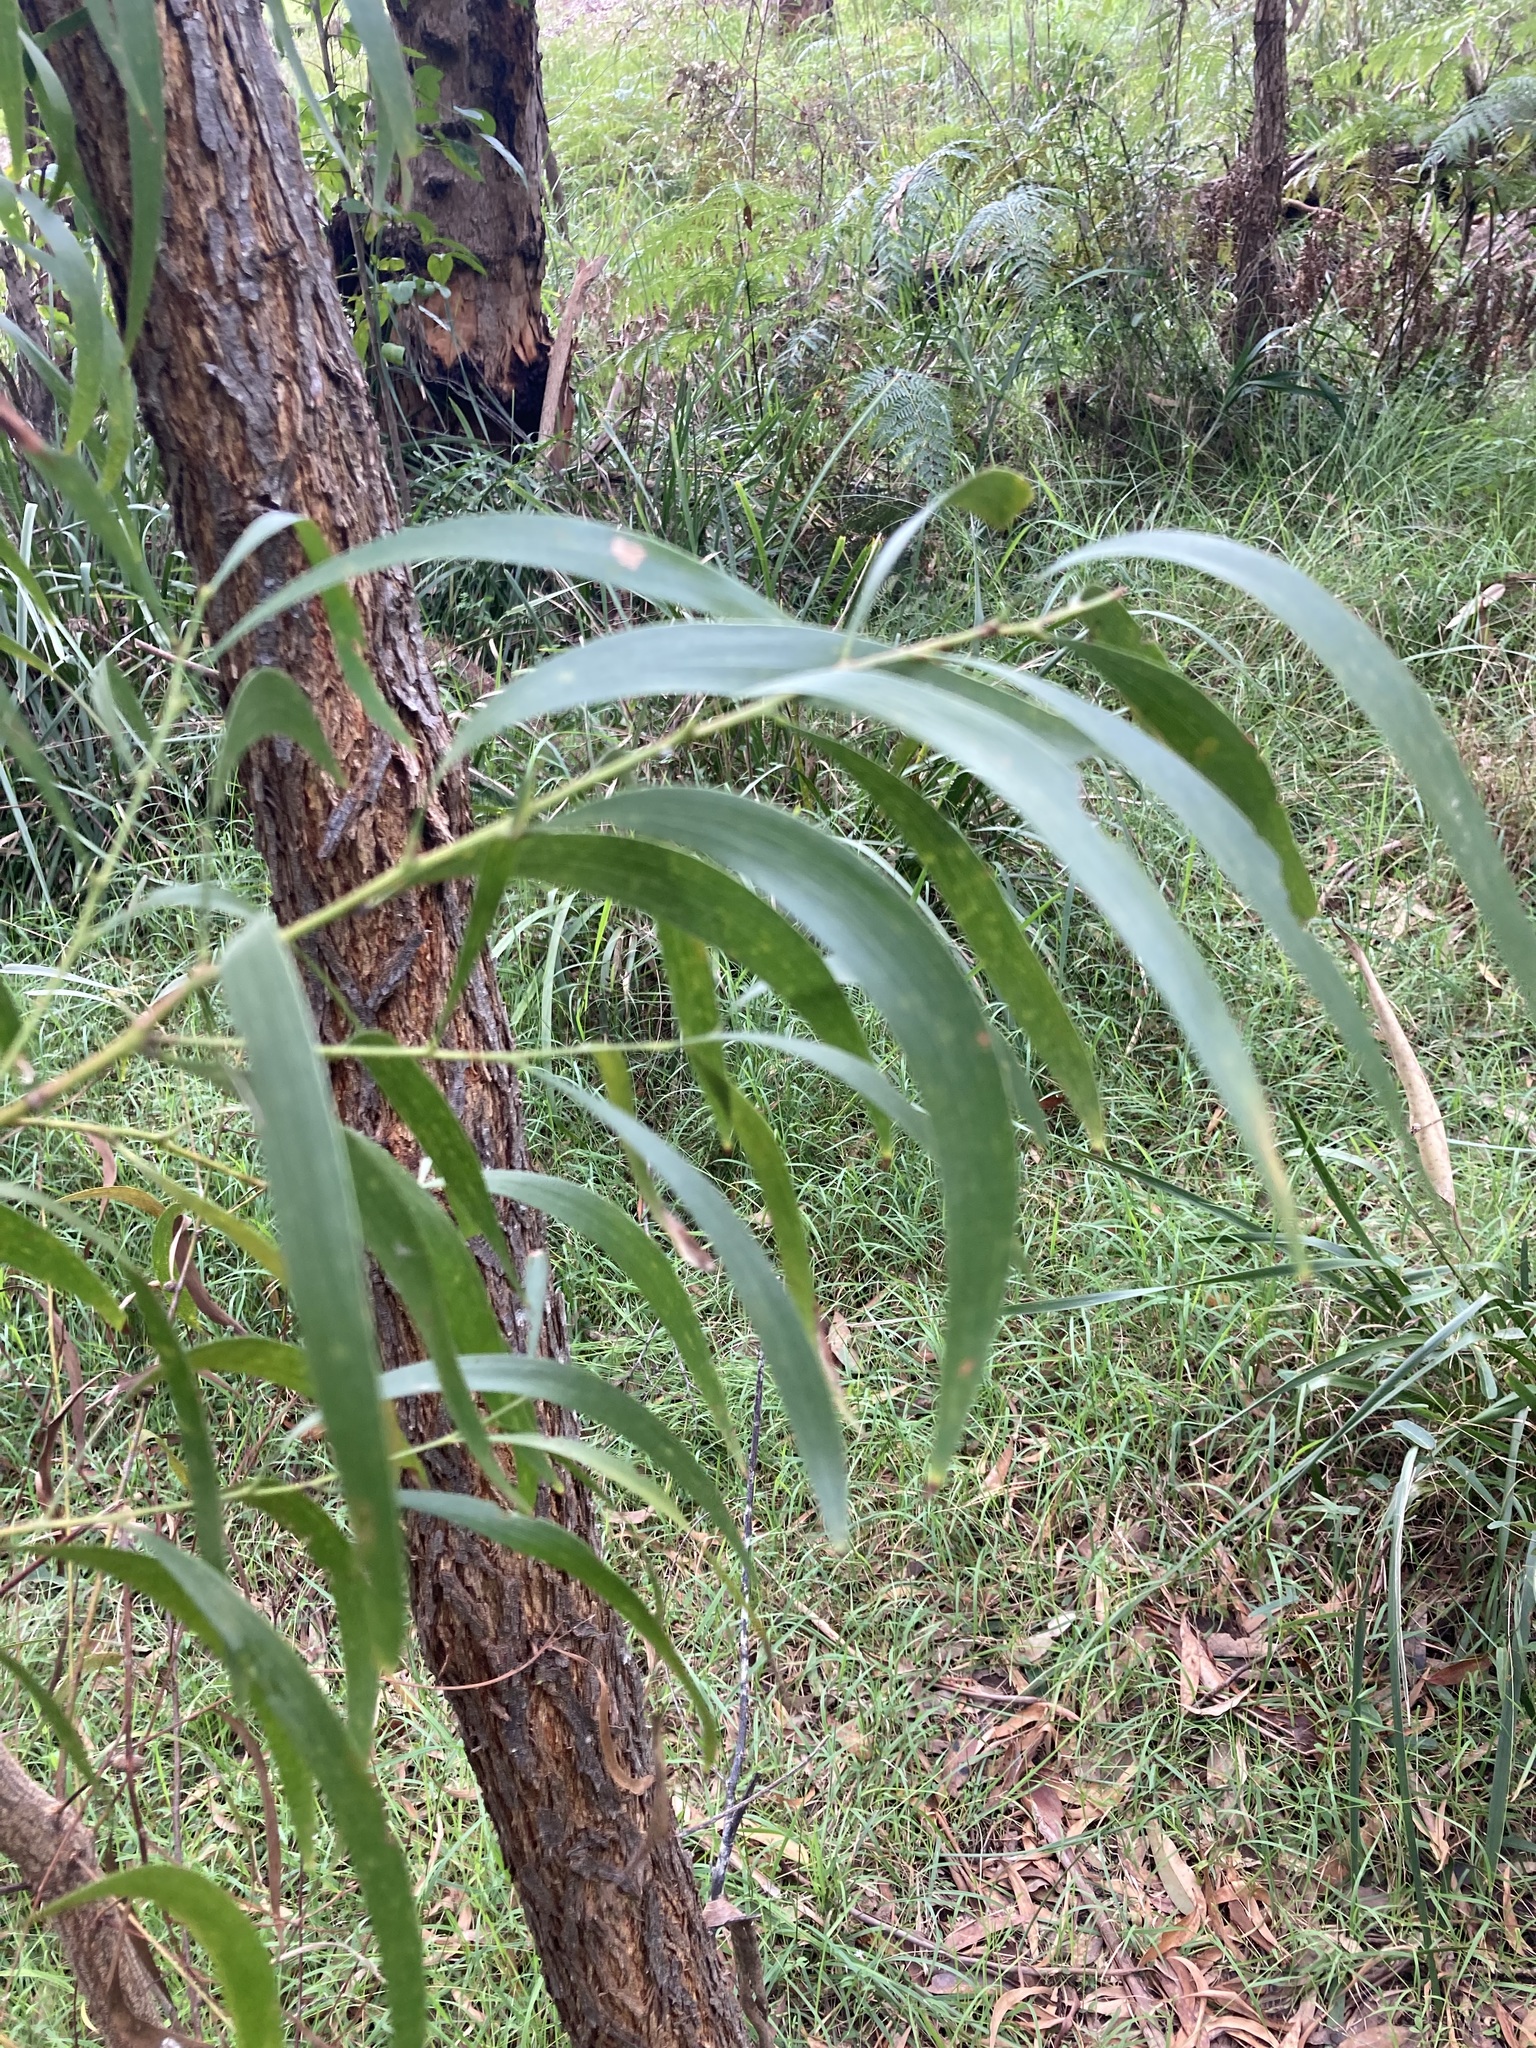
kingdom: Plantae
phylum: Tracheophyta
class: Magnoliopsida
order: Fabales
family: Fabaceae
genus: Acacia
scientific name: Acacia implexa
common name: Black wattle
